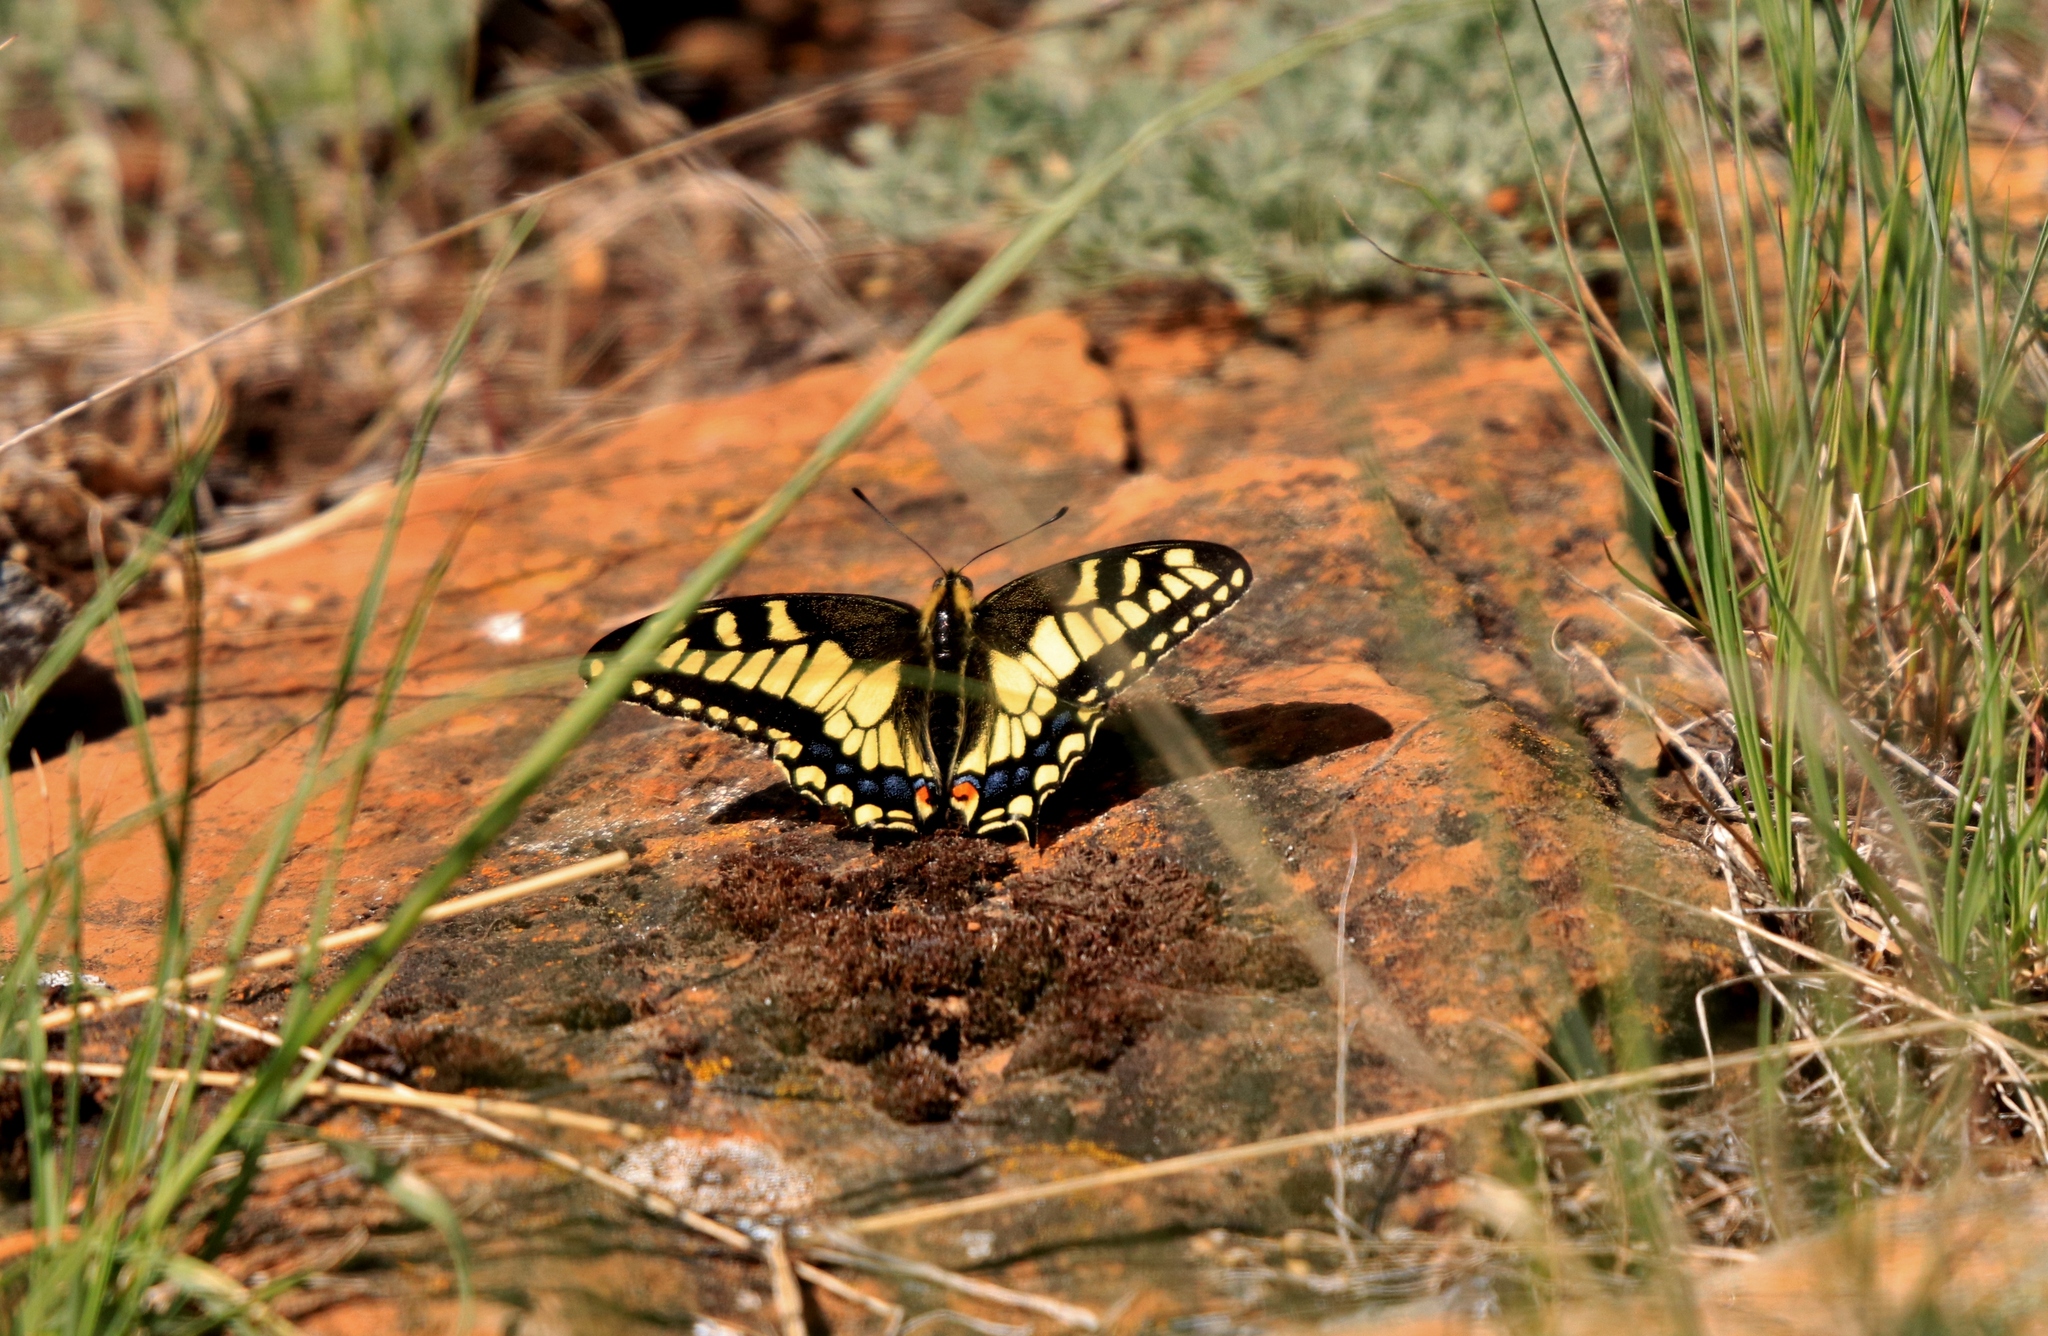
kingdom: Animalia
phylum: Arthropoda
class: Insecta
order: Lepidoptera
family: Papilionidae
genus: Papilio
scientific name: Papilio
